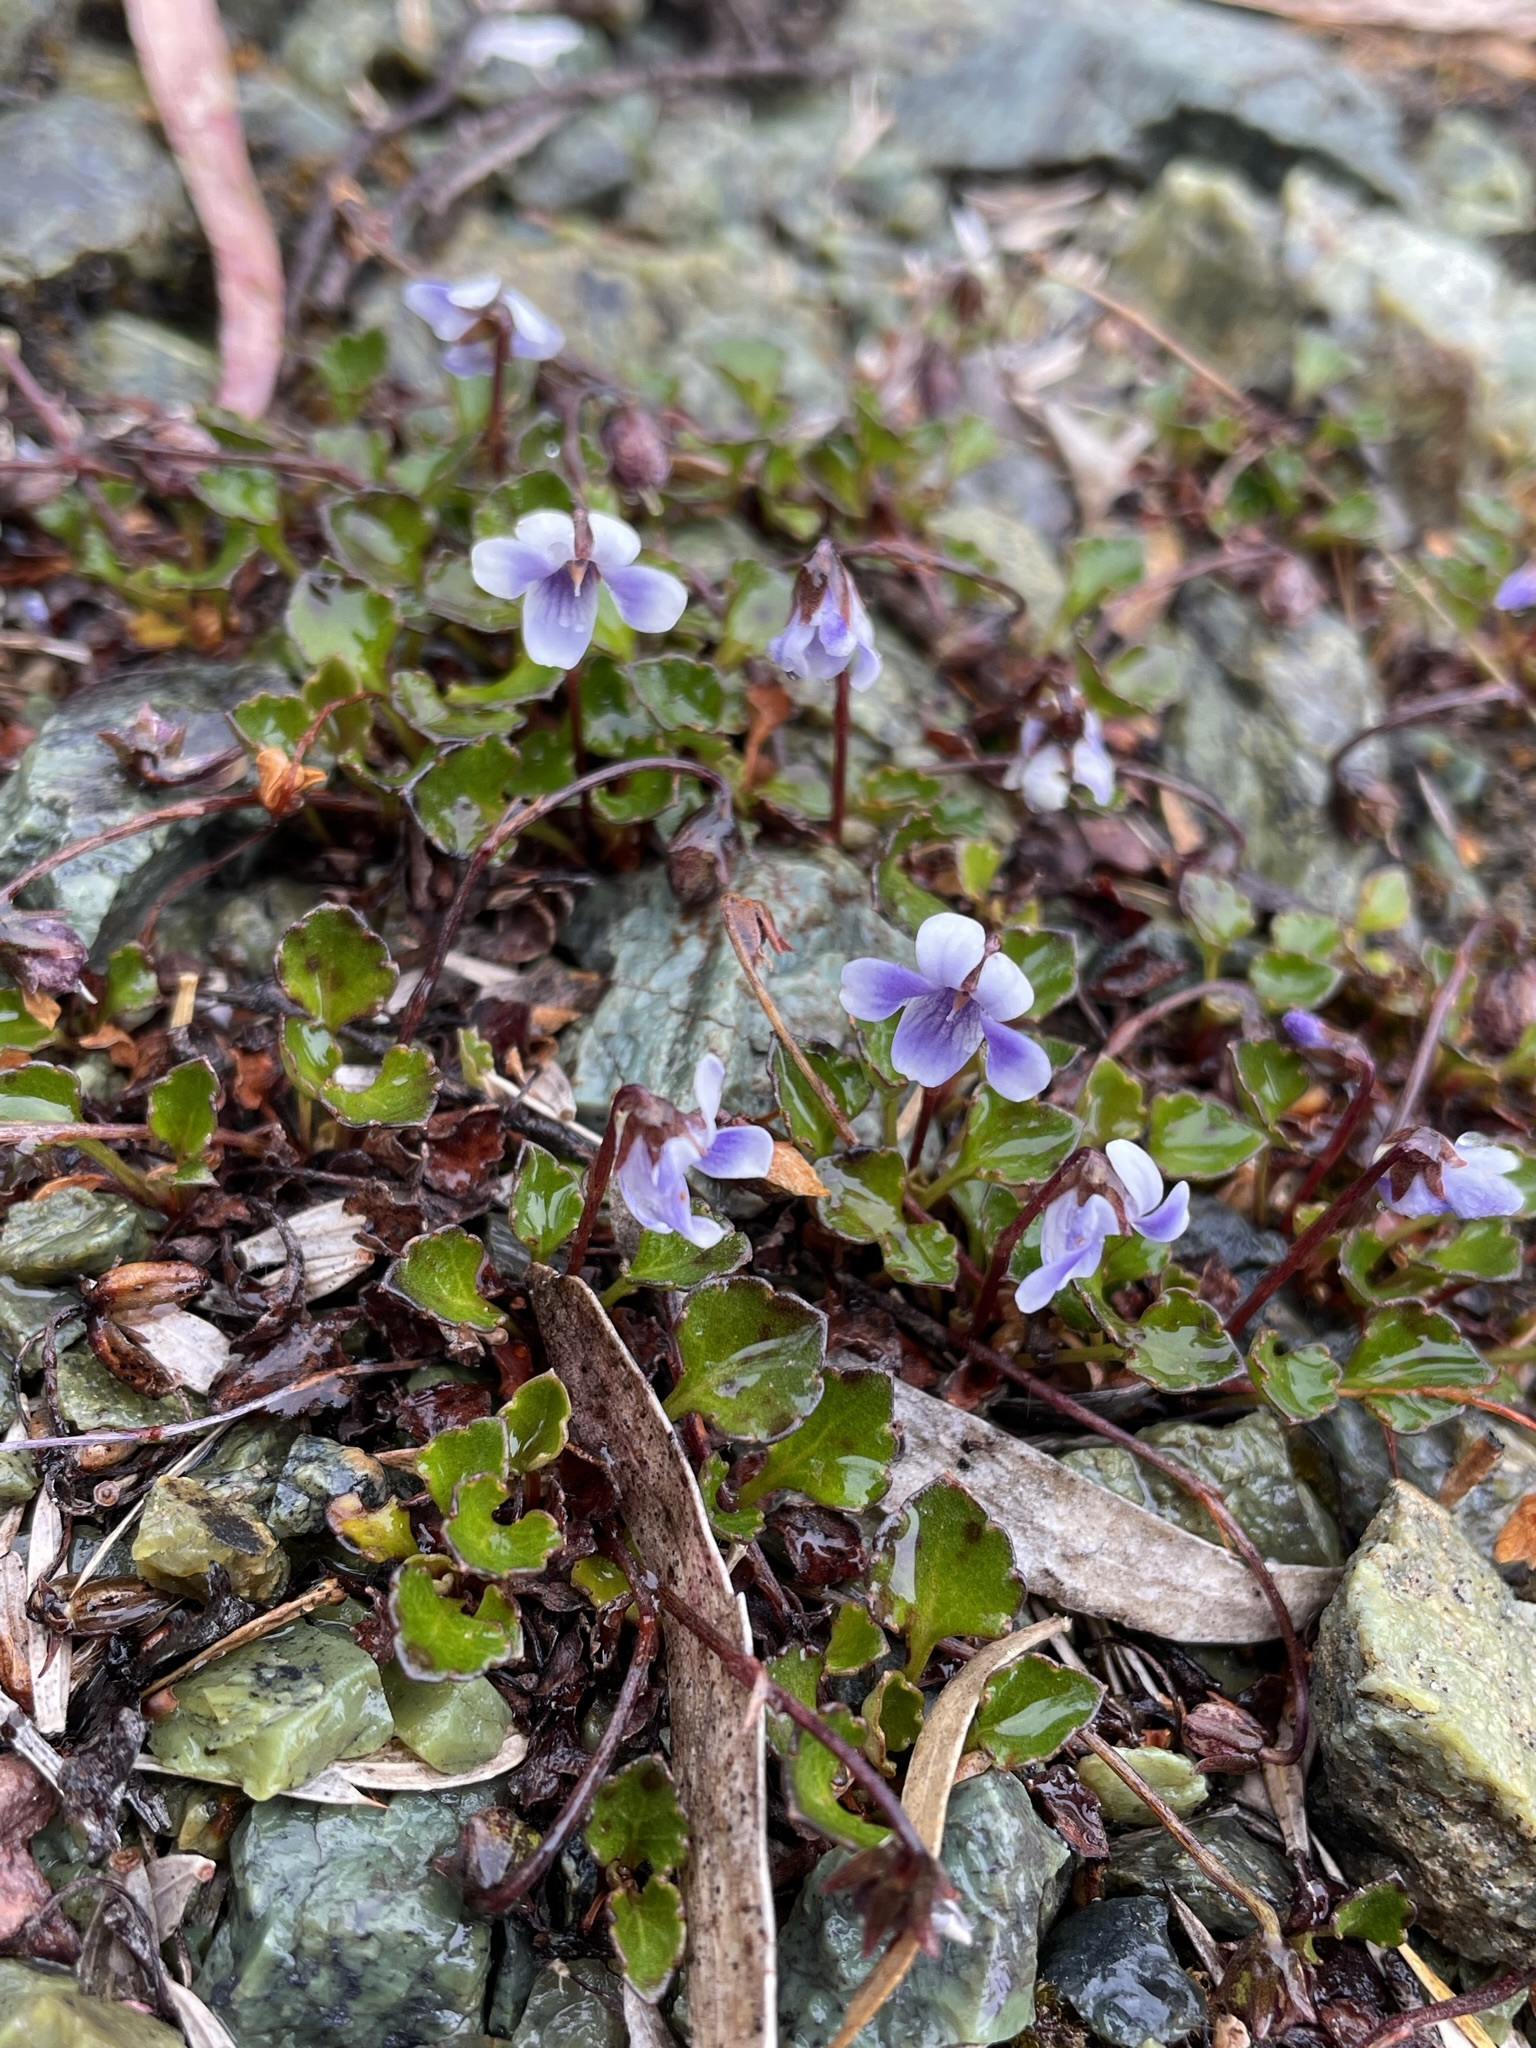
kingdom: Plantae
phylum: Tracheophyta
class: Magnoliopsida
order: Malpighiales
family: Violaceae
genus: Viola
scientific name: Viola serpentinicola
